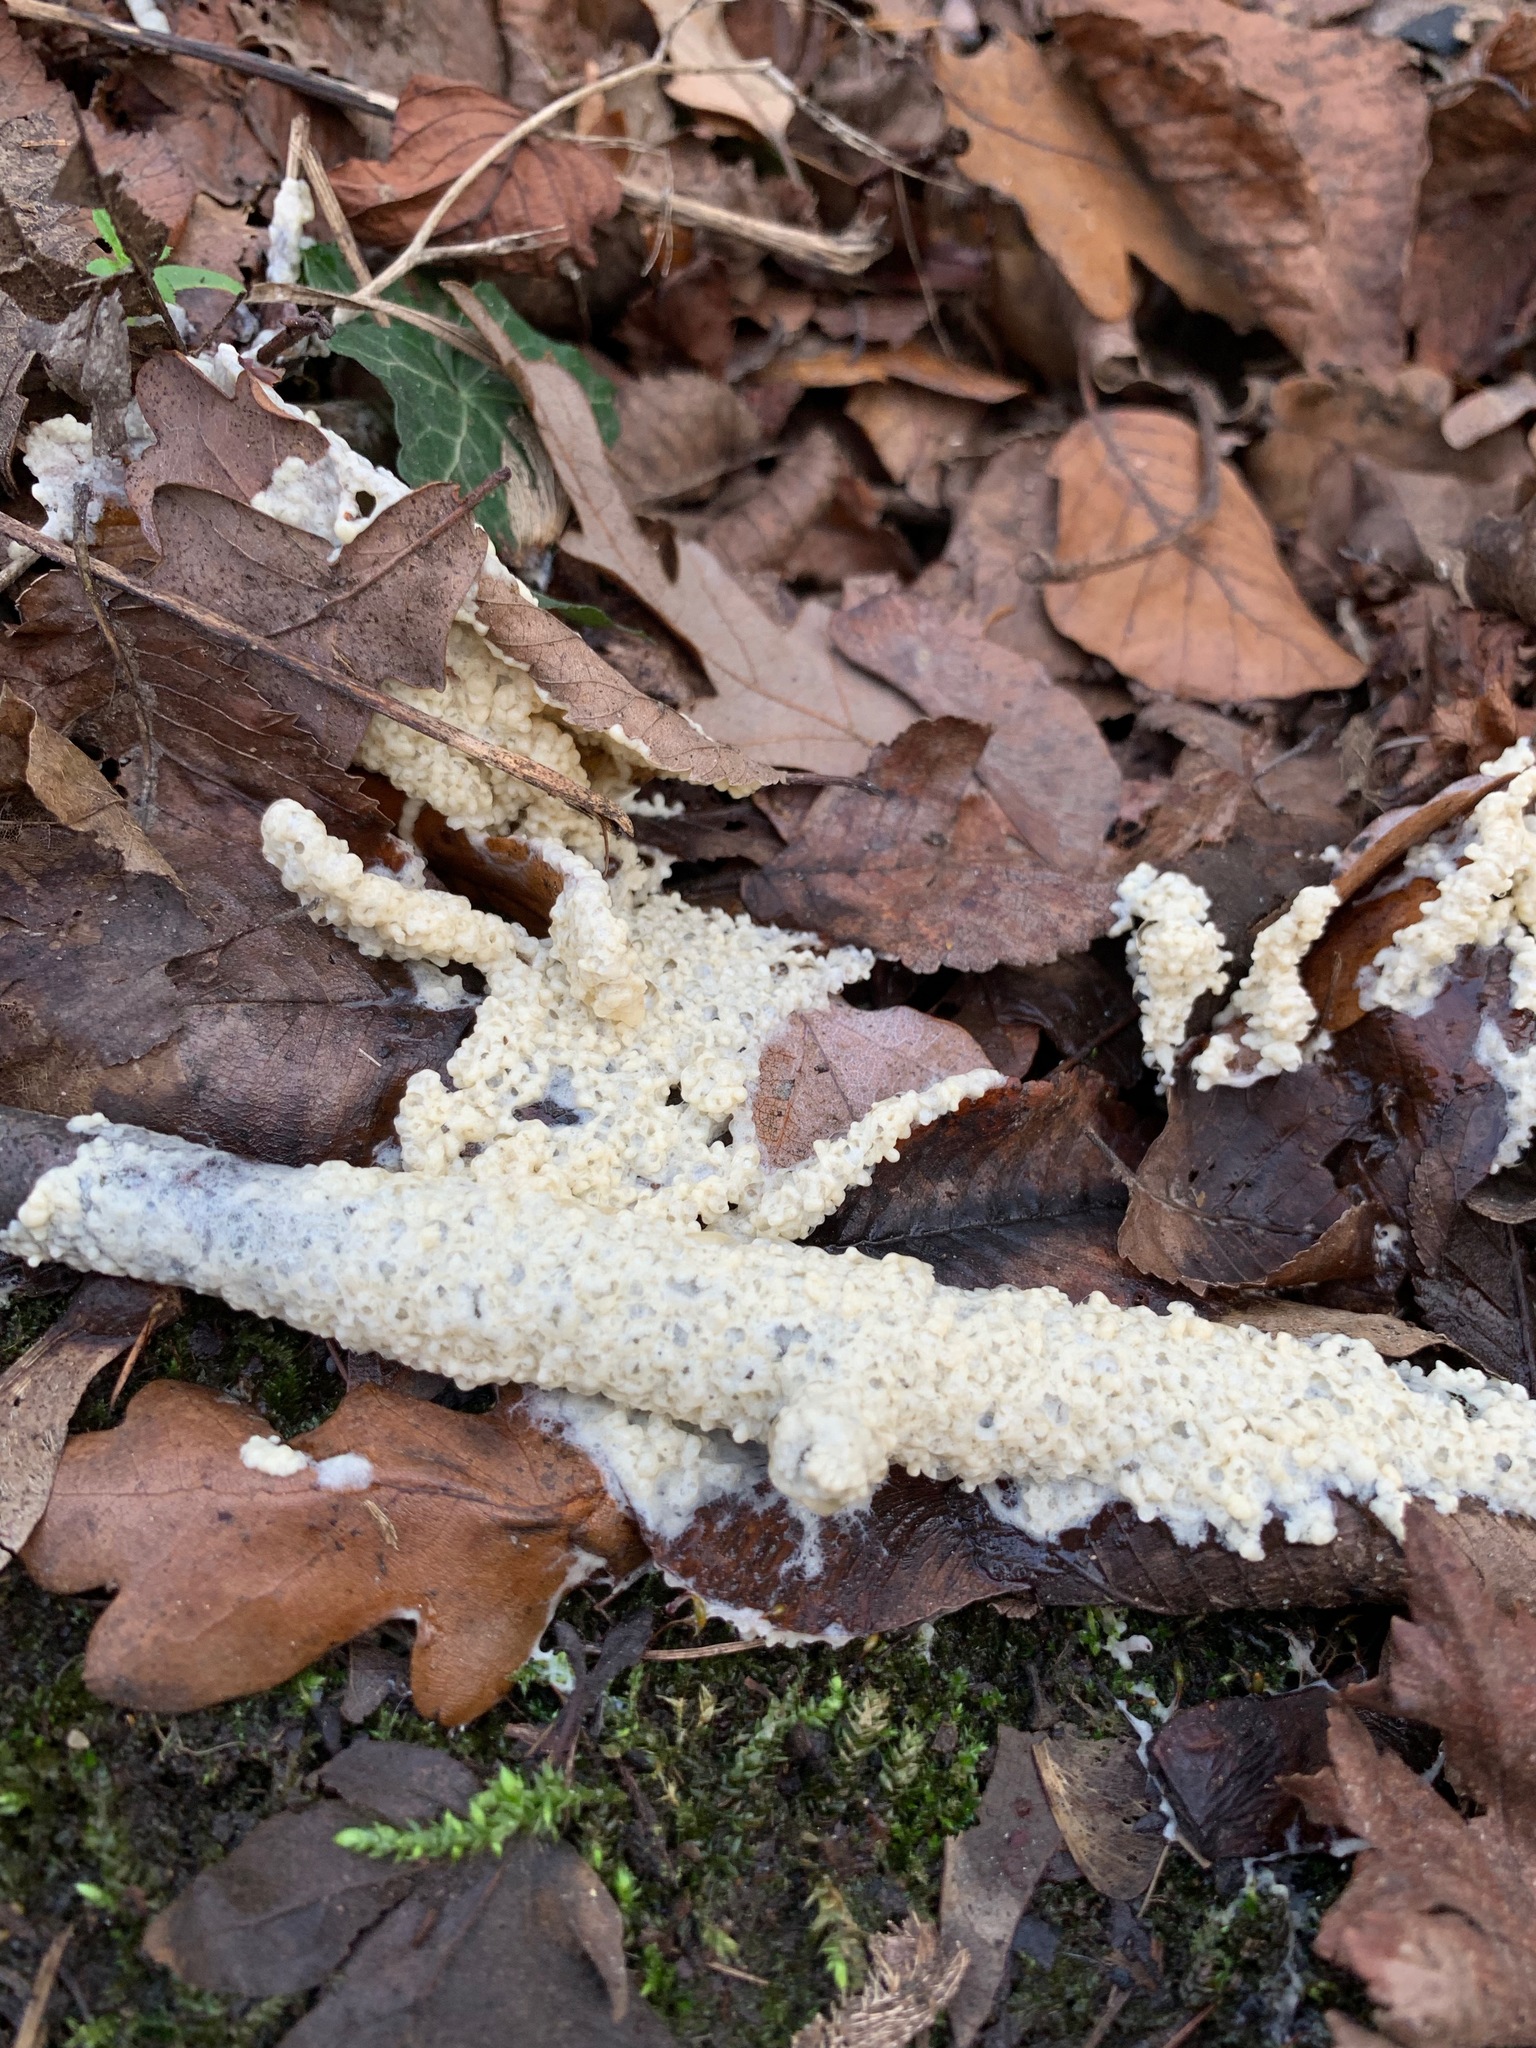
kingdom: Protozoa
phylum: Mycetozoa
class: Myxomycetes
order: Physarales
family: Physaraceae
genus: Didymium
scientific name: Didymium
